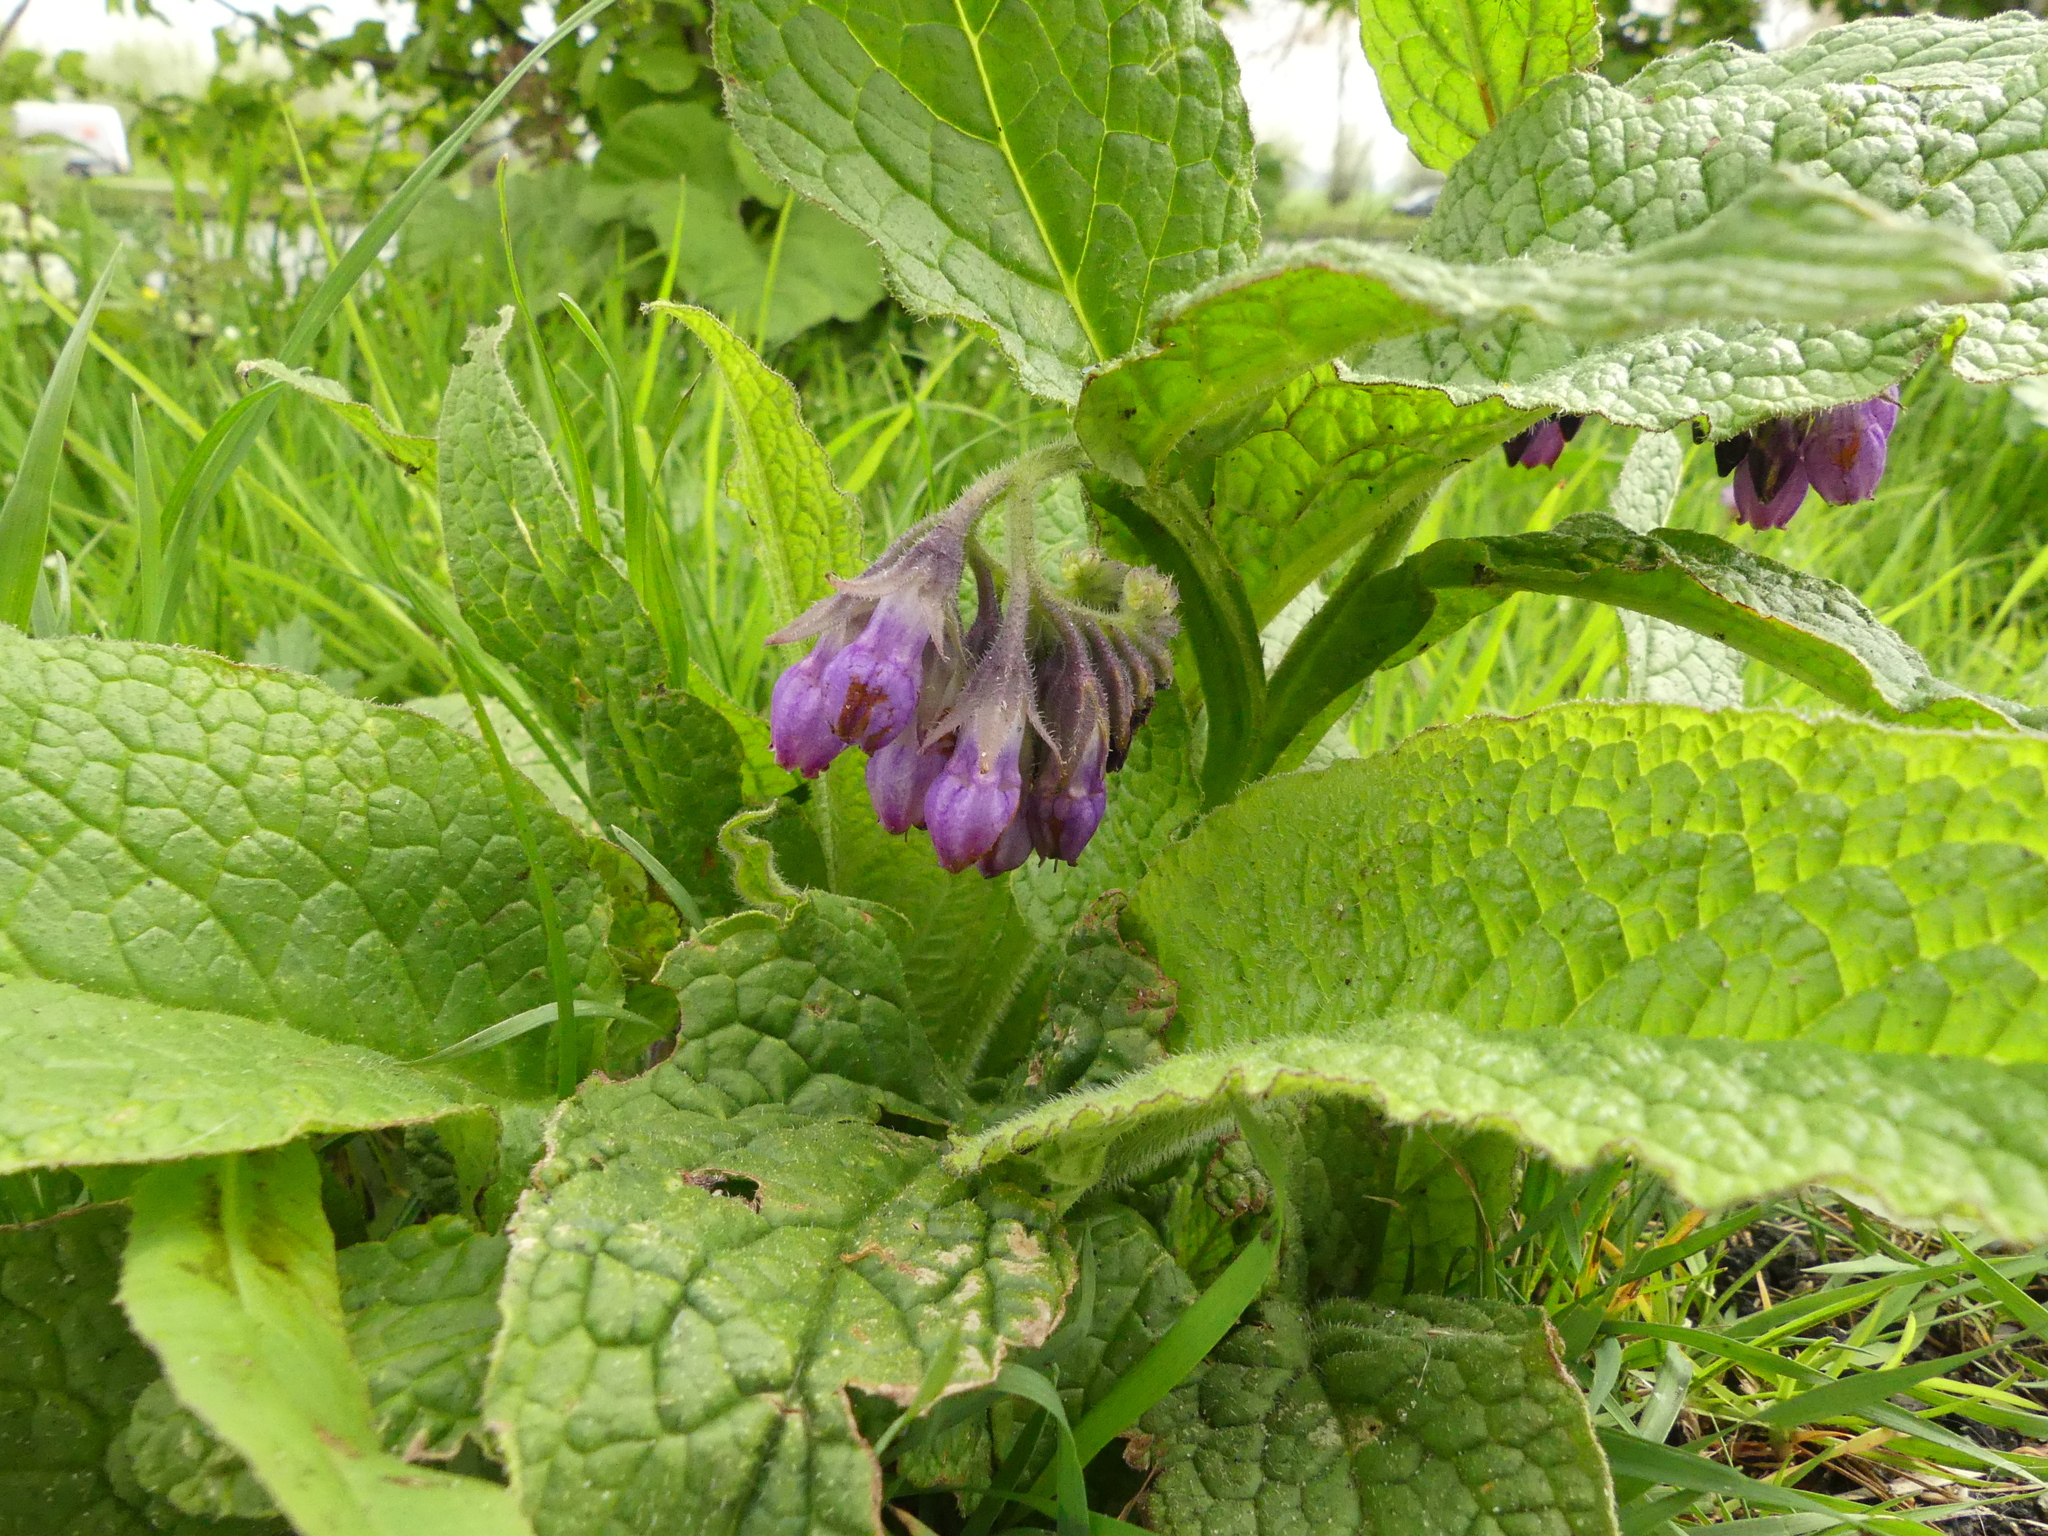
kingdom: Plantae
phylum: Tracheophyta
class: Magnoliopsida
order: Boraginales
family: Boraginaceae
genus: Symphytum
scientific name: Symphytum officinale
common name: Common comfrey
